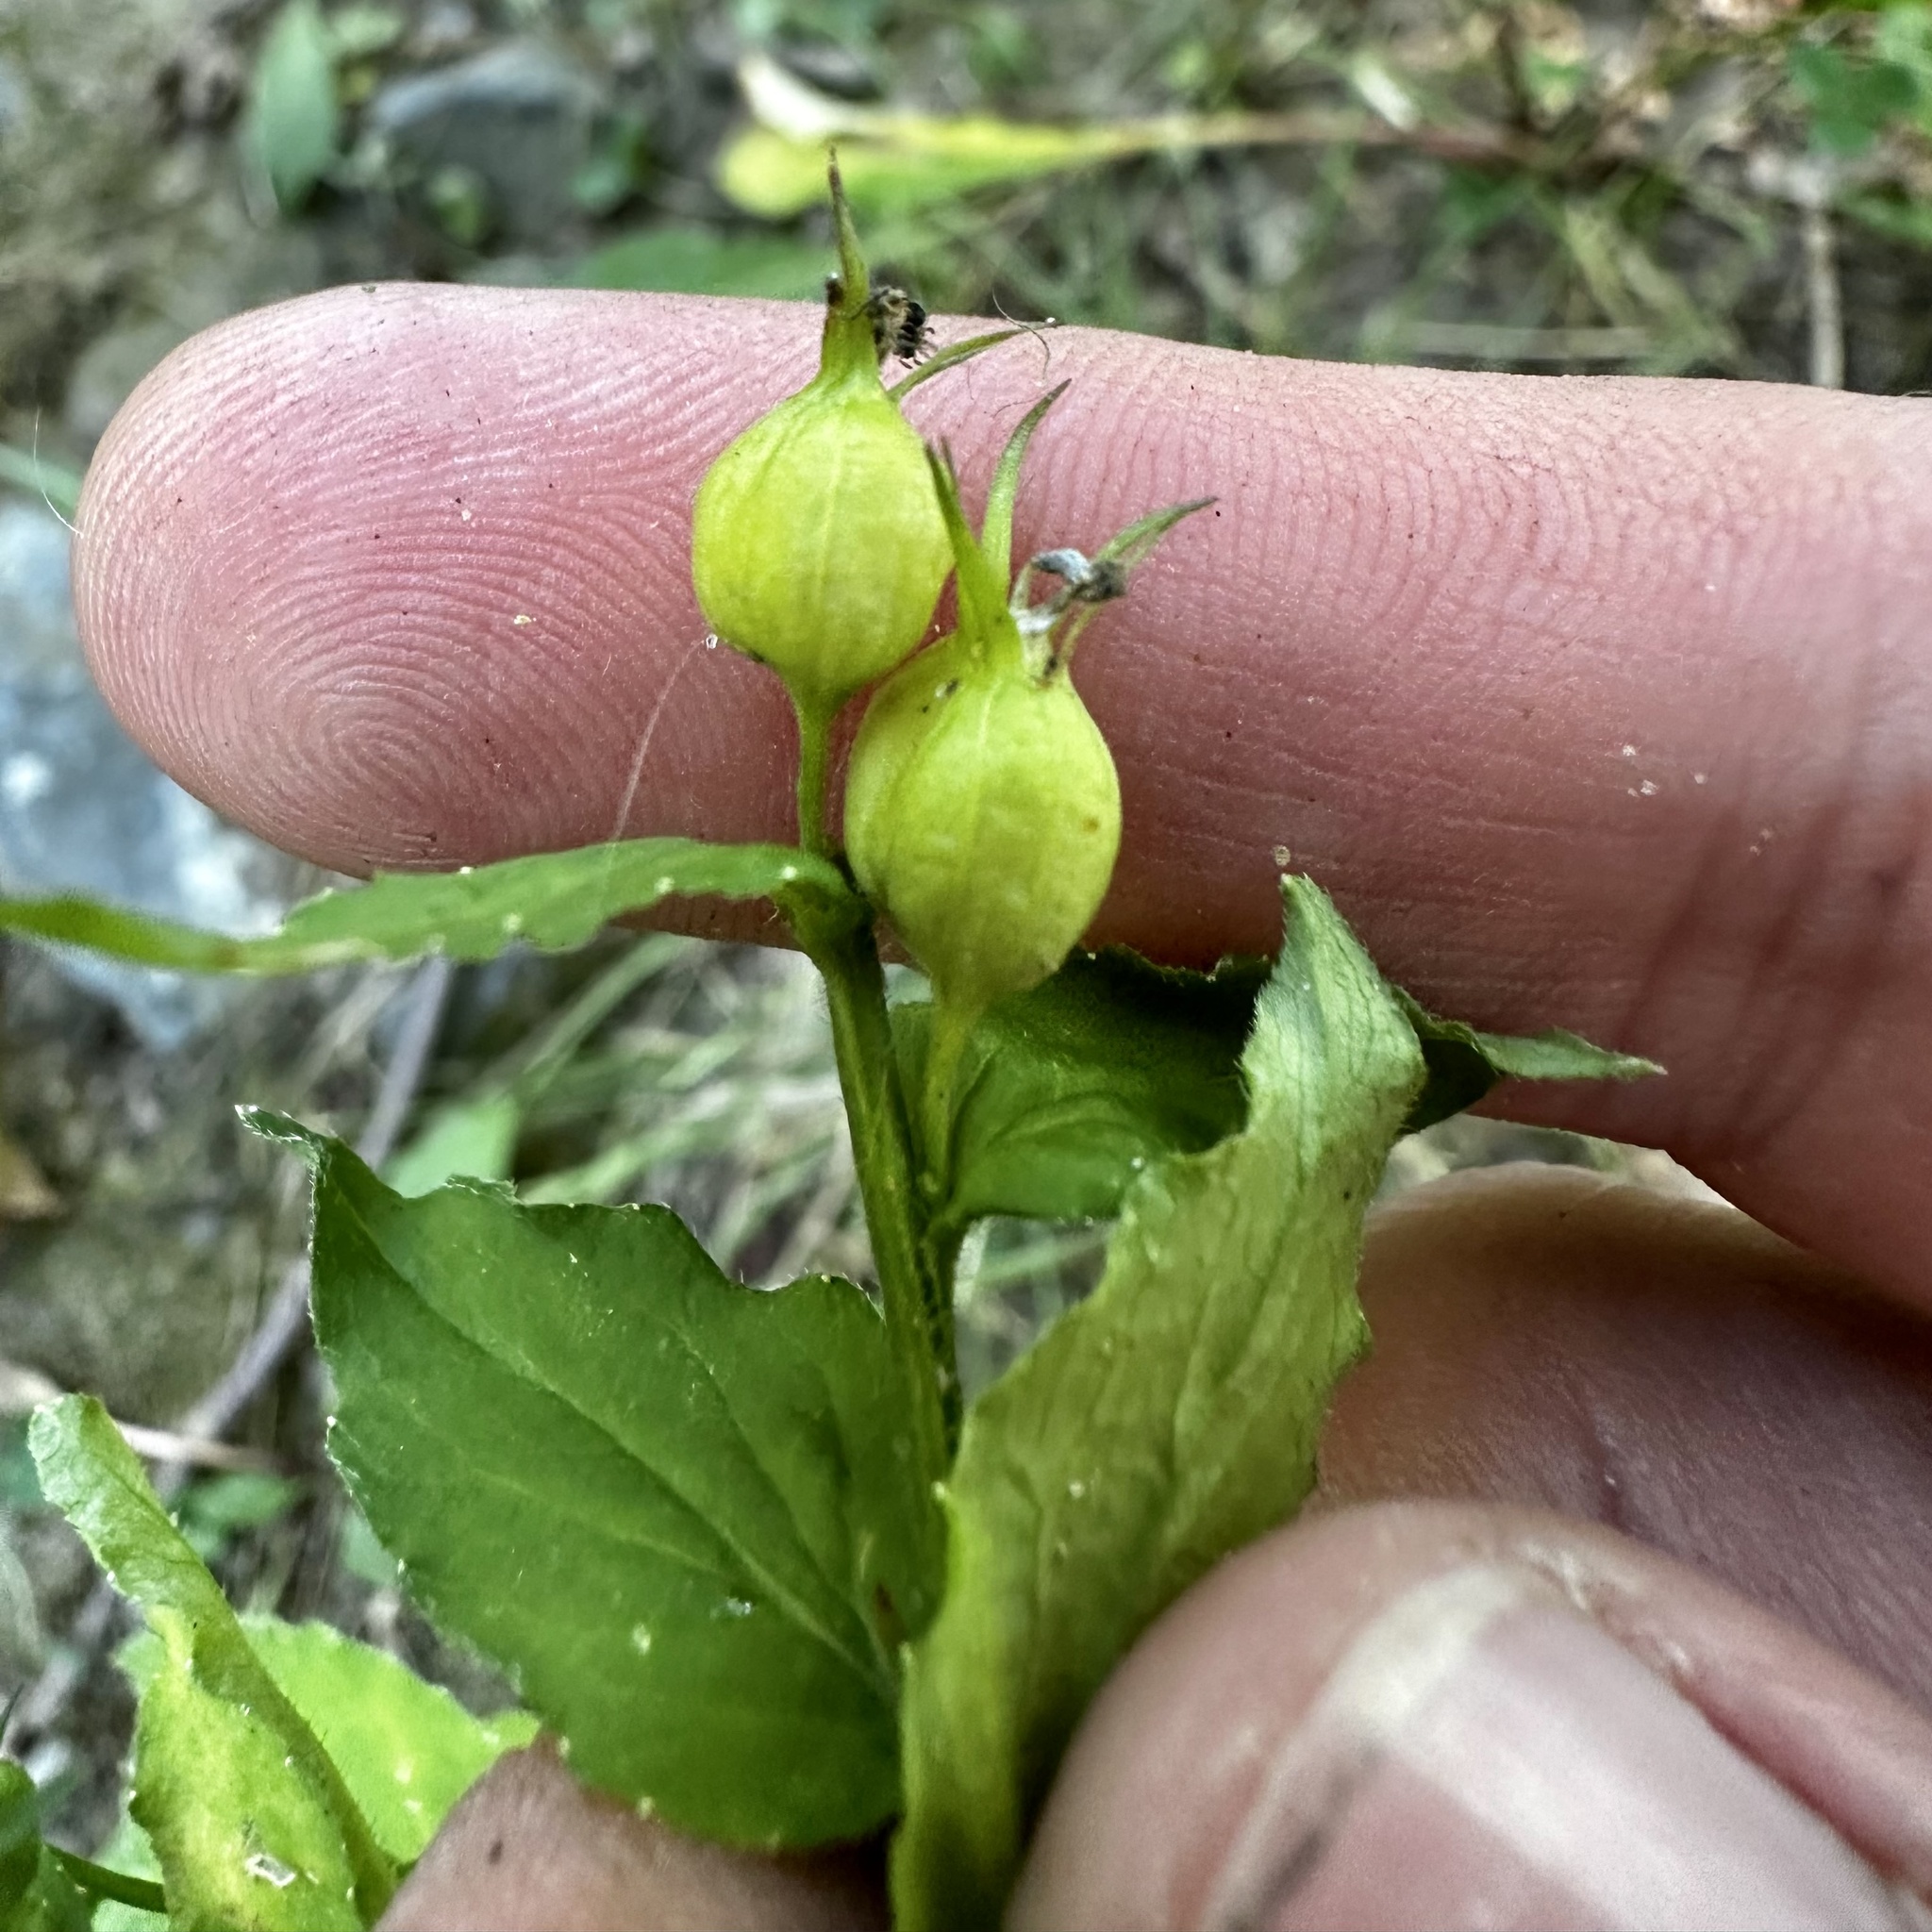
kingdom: Plantae
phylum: Tracheophyta
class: Magnoliopsida
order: Asterales
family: Campanulaceae
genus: Lobelia
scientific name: Lobelia inflata
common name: Indian tobacco
